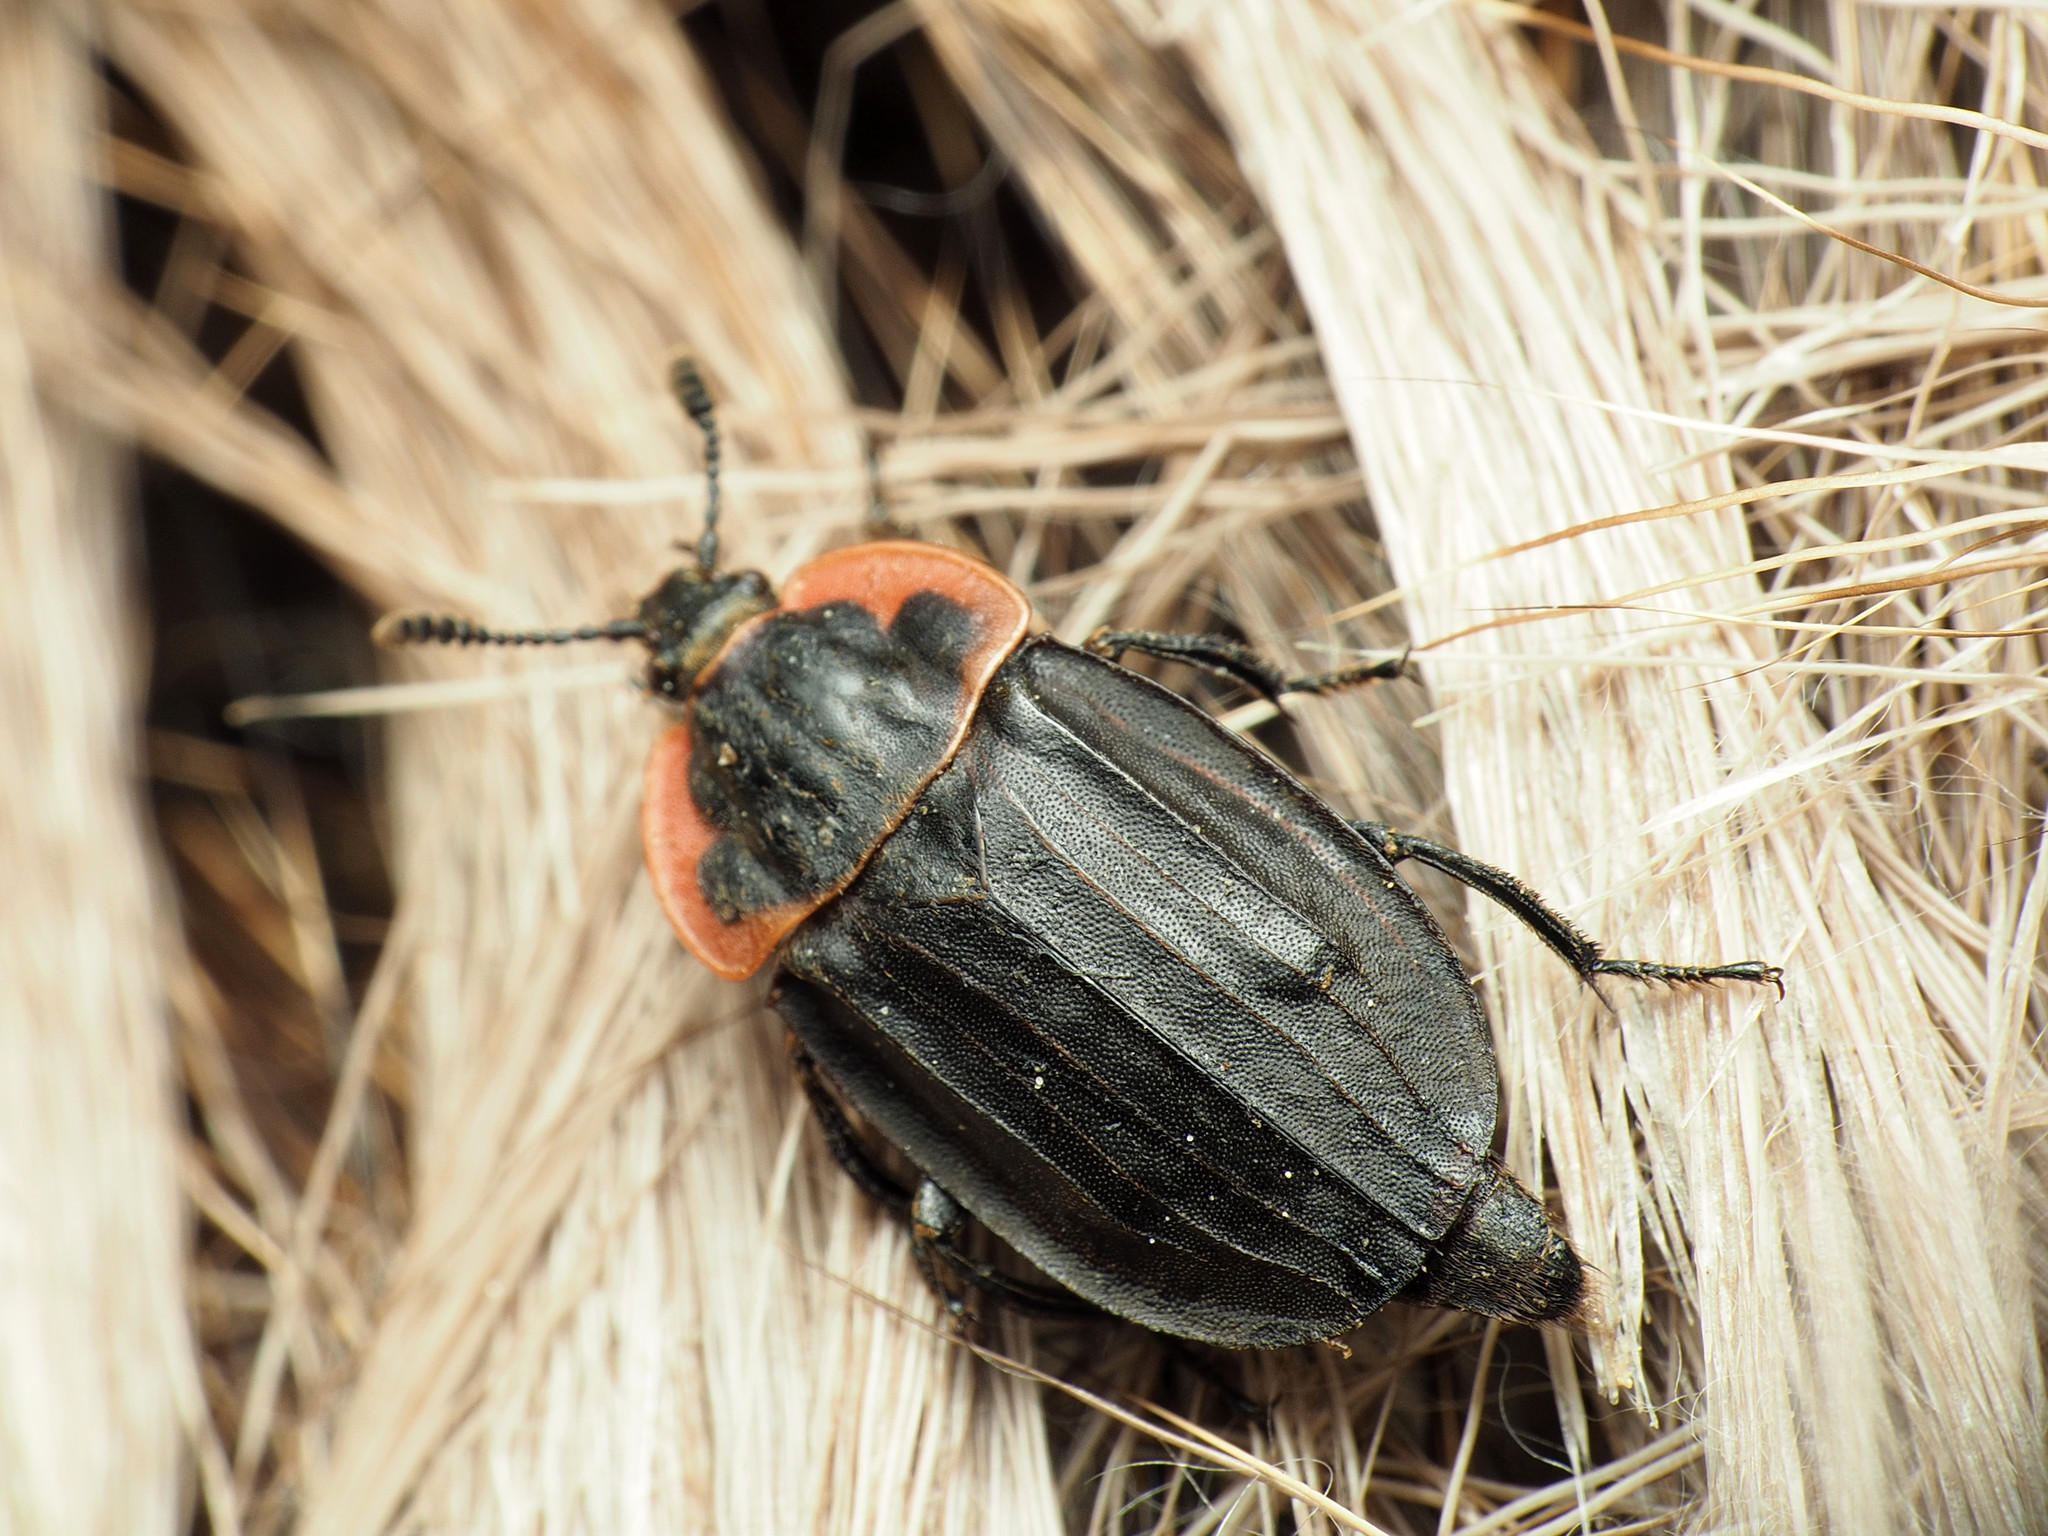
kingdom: Animalia
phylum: Arthropoda
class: Insecta
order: Coleoptera
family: Staphylinidae
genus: Oiceoptoma
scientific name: Oiceoptoma noveboracense
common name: Margined carrion beetle
